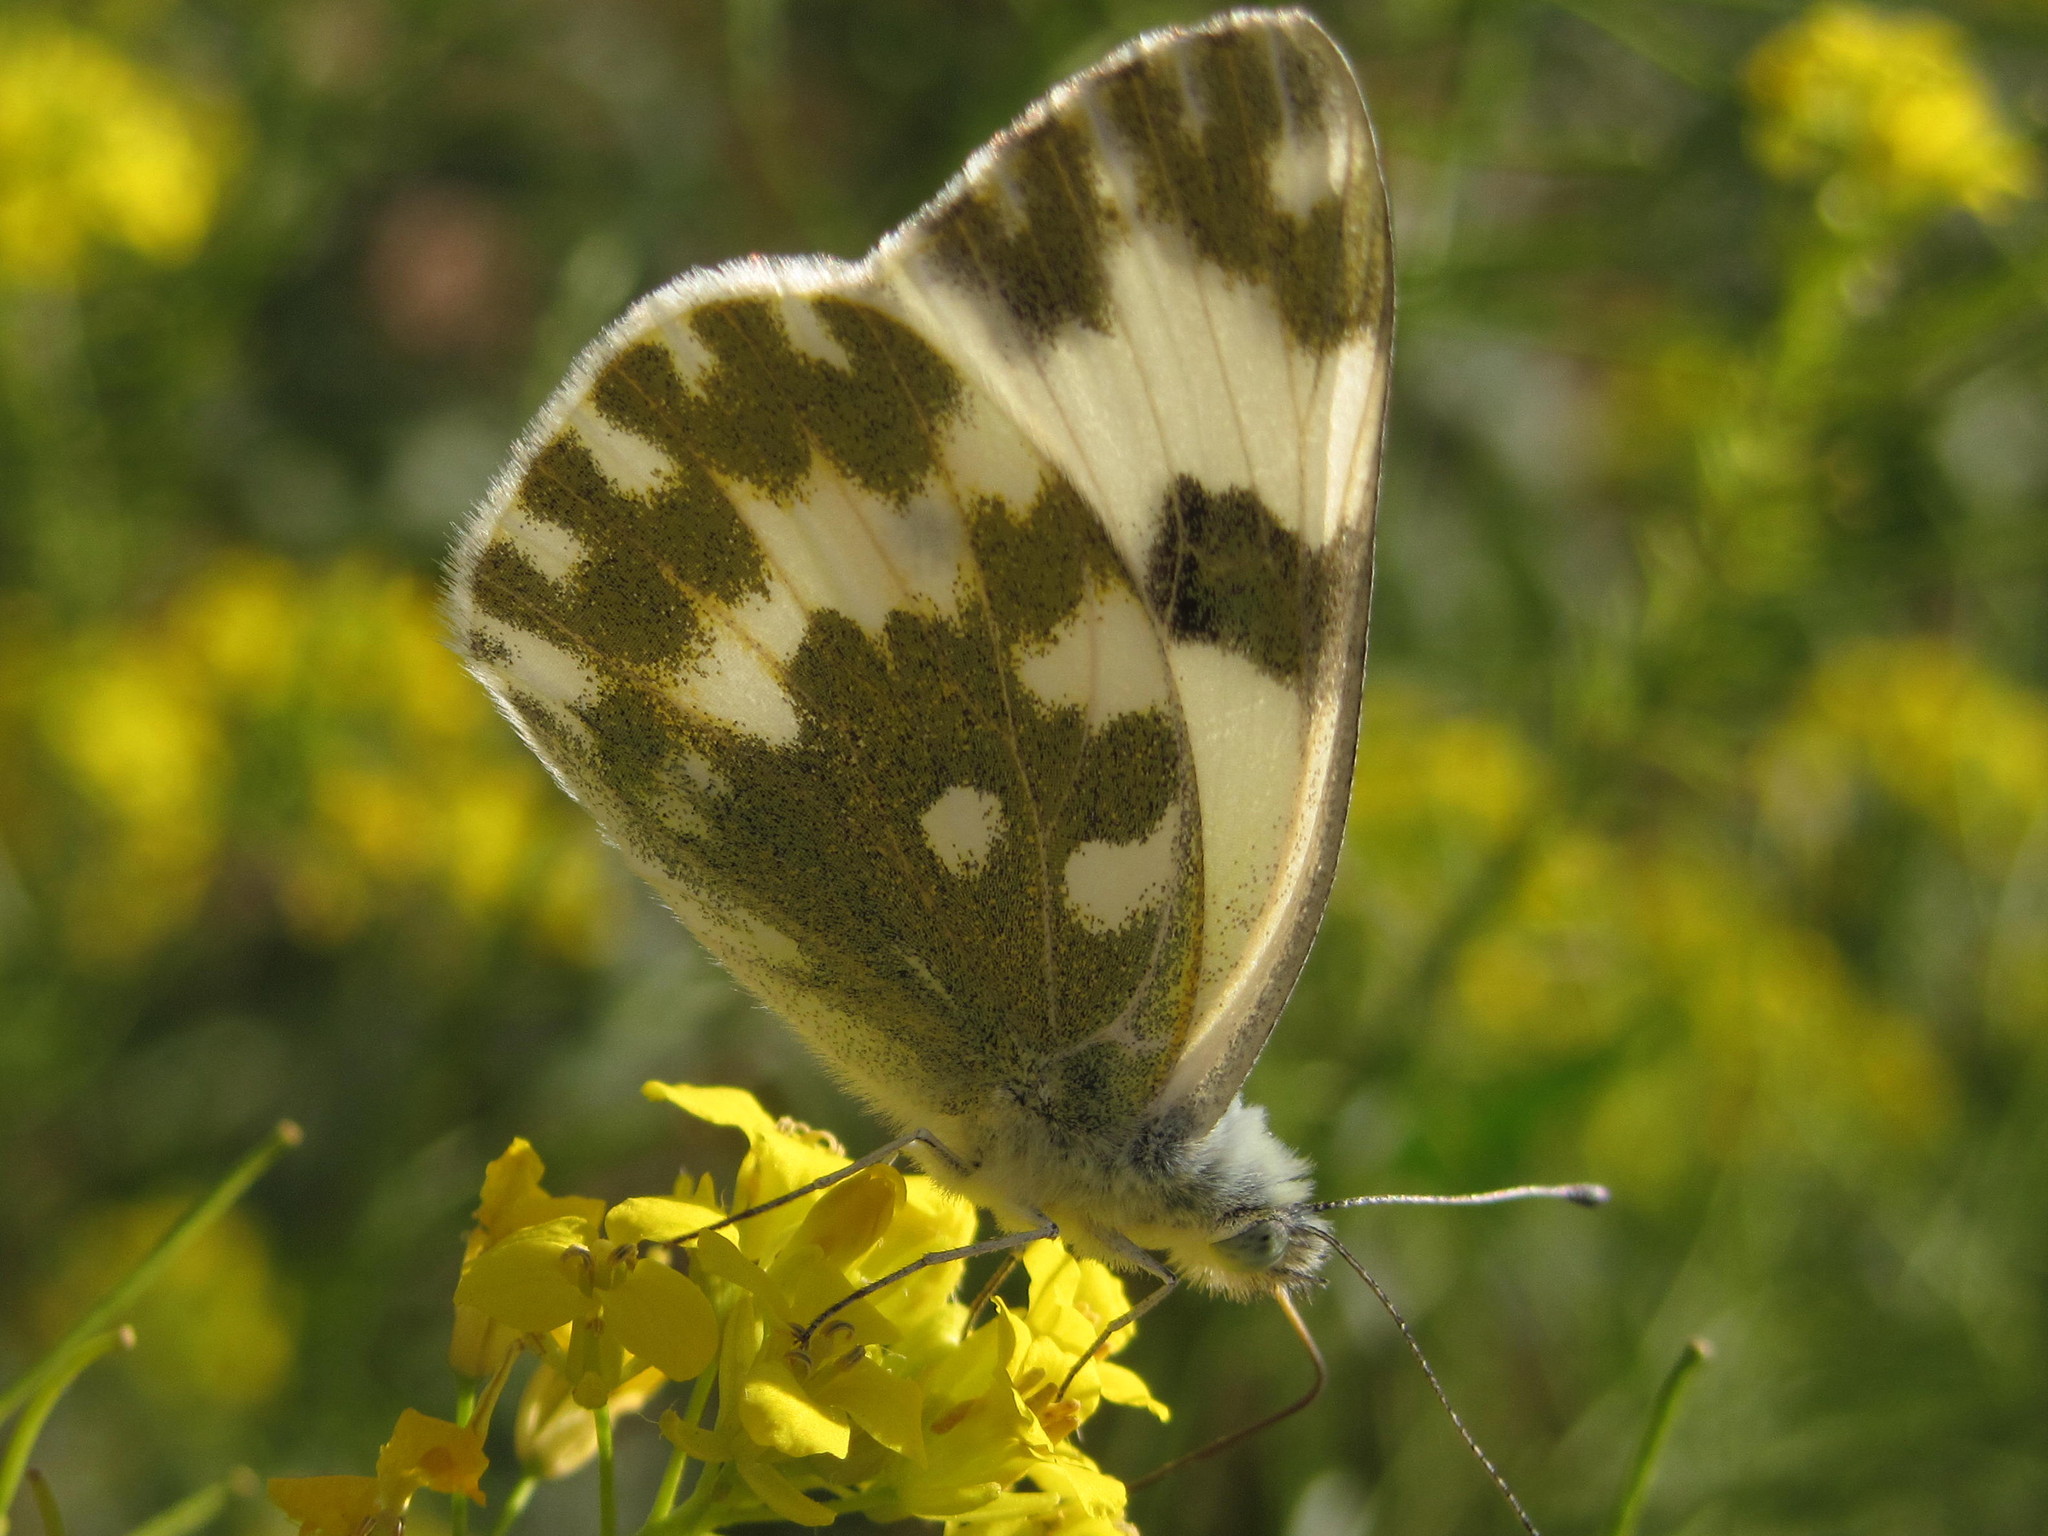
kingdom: Animalia
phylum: Arthropoda
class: Insecta
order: Lepidoptera
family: Pieridae
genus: Pontia
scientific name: Pontia edusa
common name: Eastern bath white
